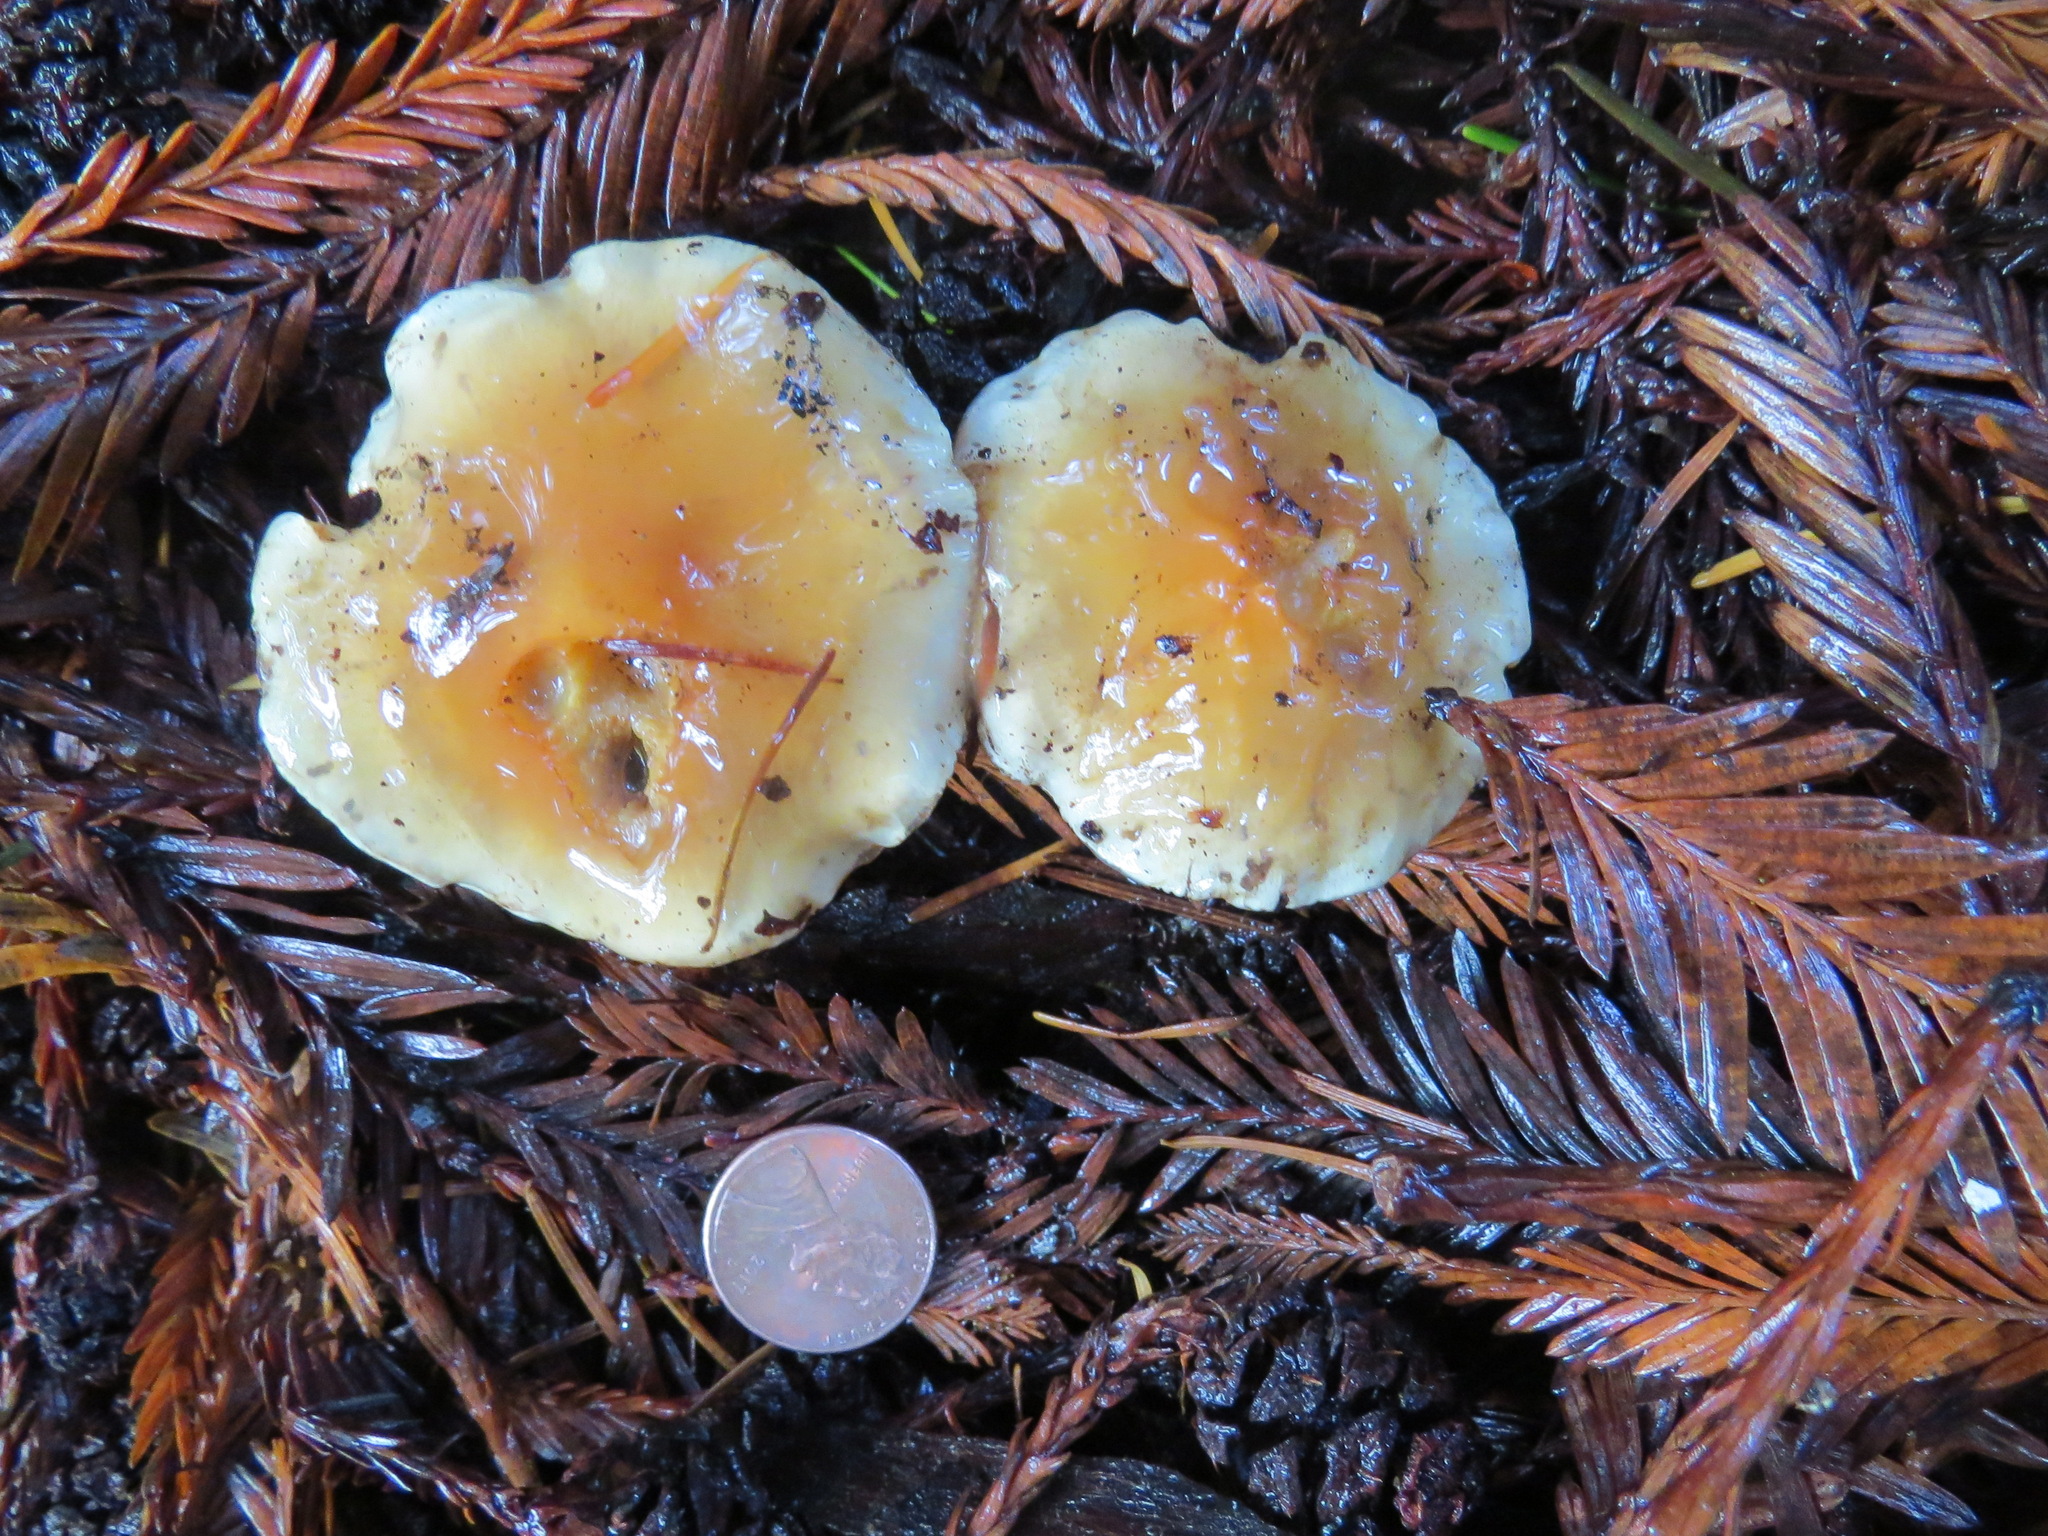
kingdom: Fungi
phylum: Basidiomycota
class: Agaricomycetes
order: Agaricales
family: Strophariaceae
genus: Hypholoma
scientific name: Hypholoma capnoides
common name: Conifer tuft
